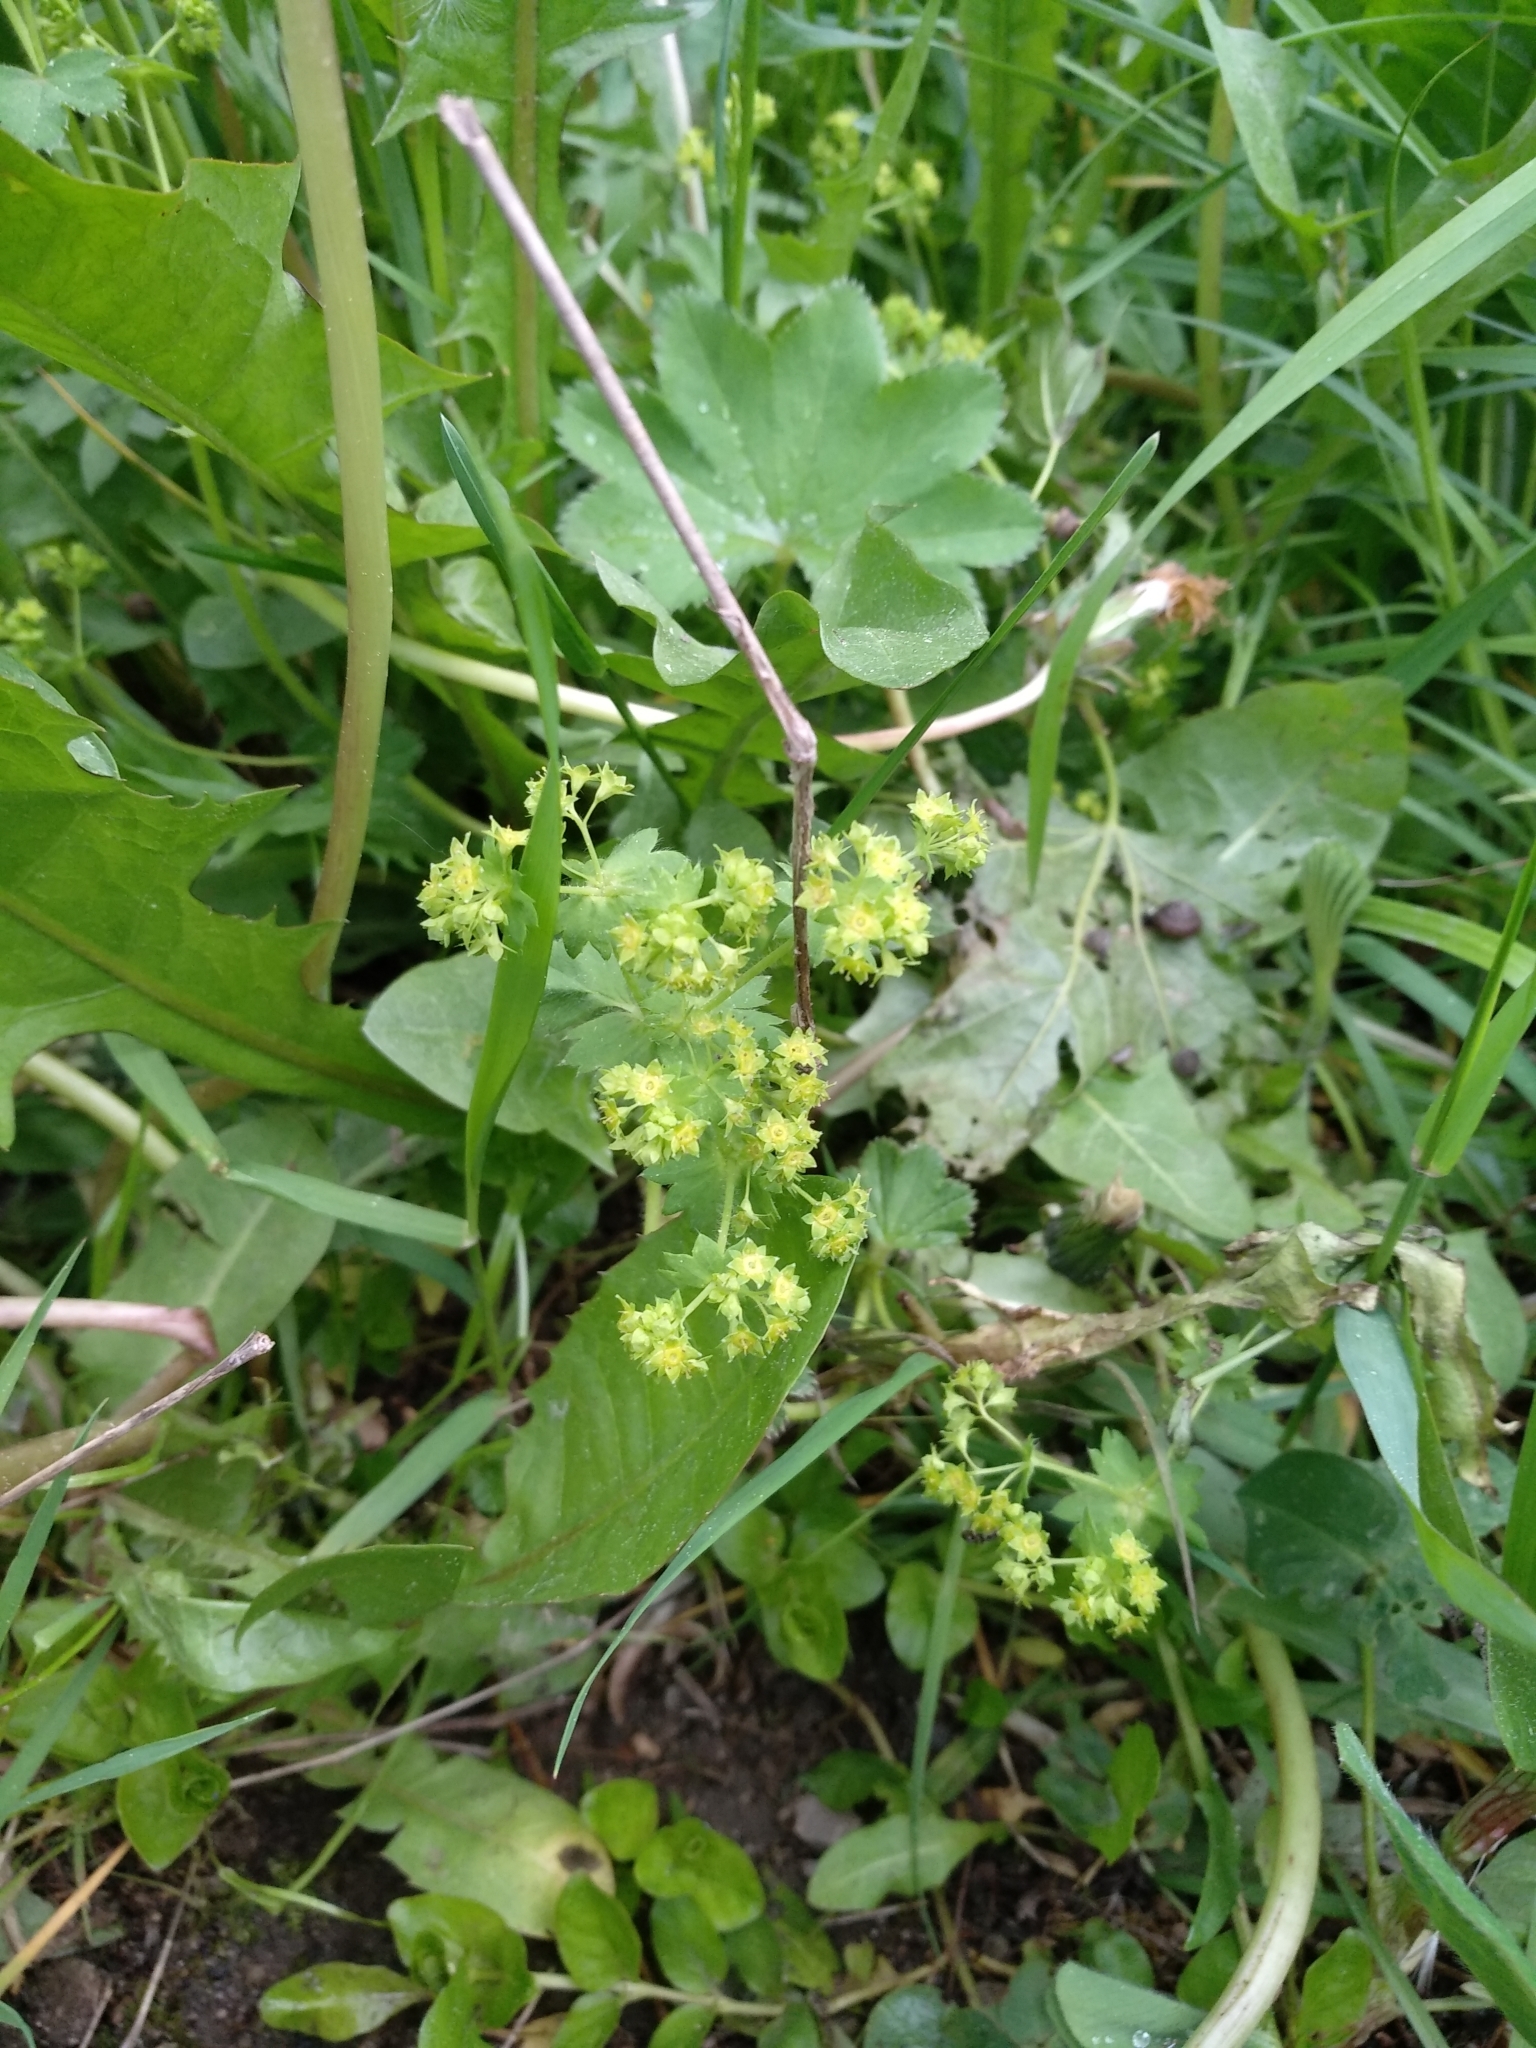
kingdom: Plantae
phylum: Tracheophyta
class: Magnoliopsida
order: Rosales
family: Rosaceae
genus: Alchemilla
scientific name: Alchemilla
